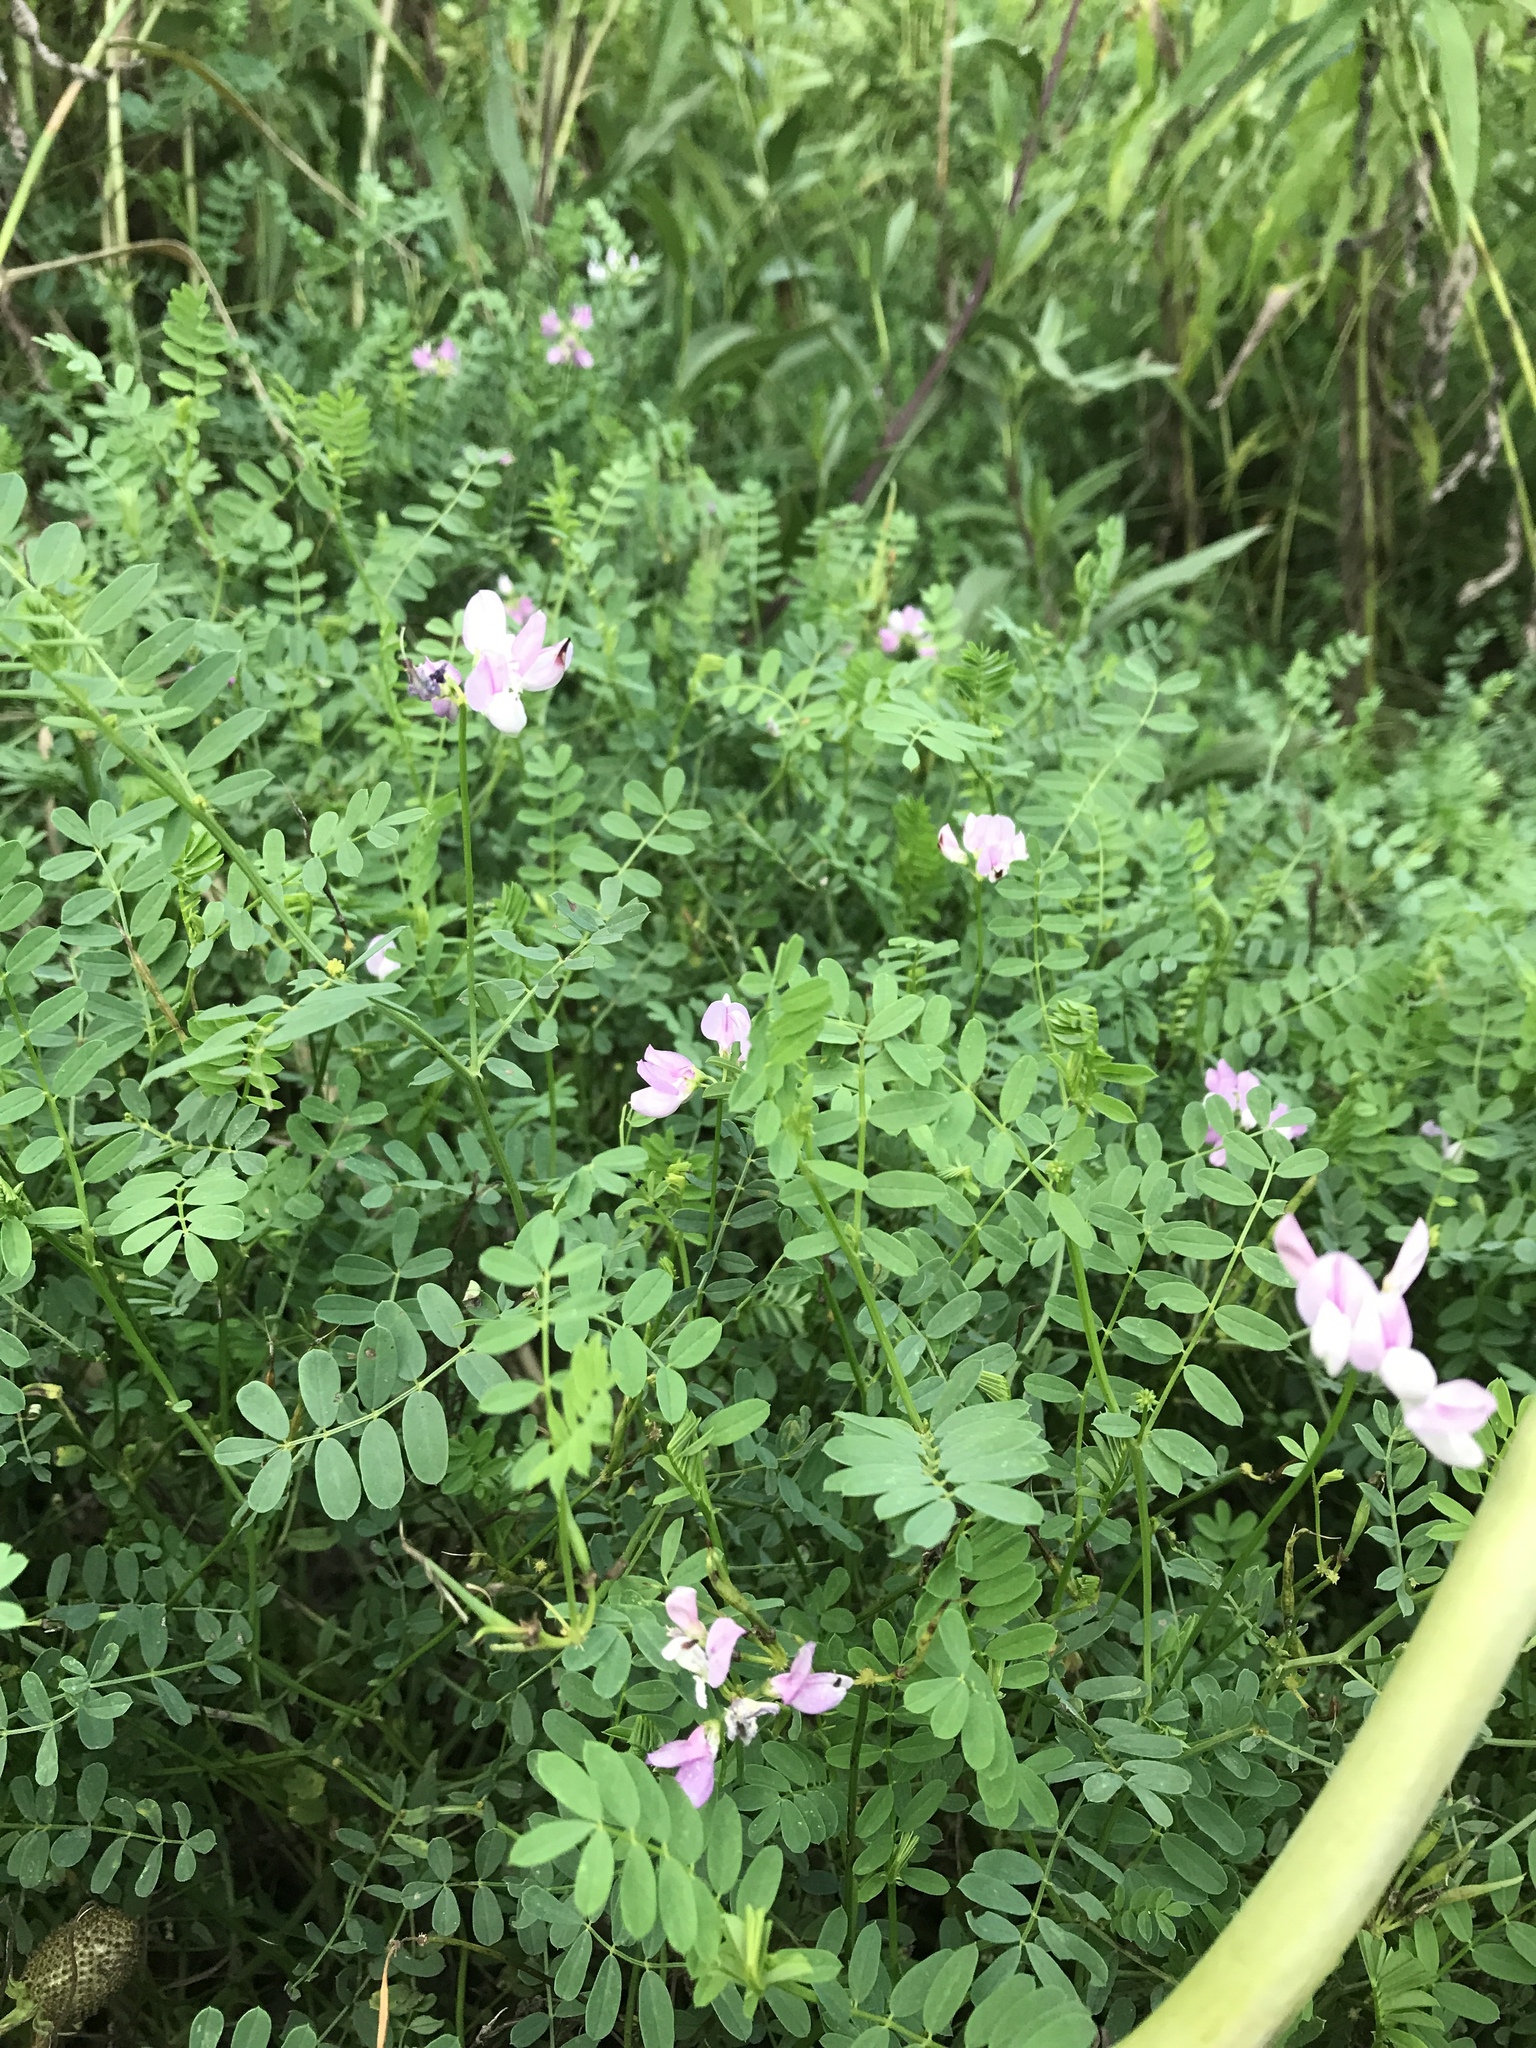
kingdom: Plantae
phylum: Tracheophyta
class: Magnoliopsida
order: Fabales
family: Fabaceae
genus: Coronilla
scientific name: Coronilla varia
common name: Crownvetch
